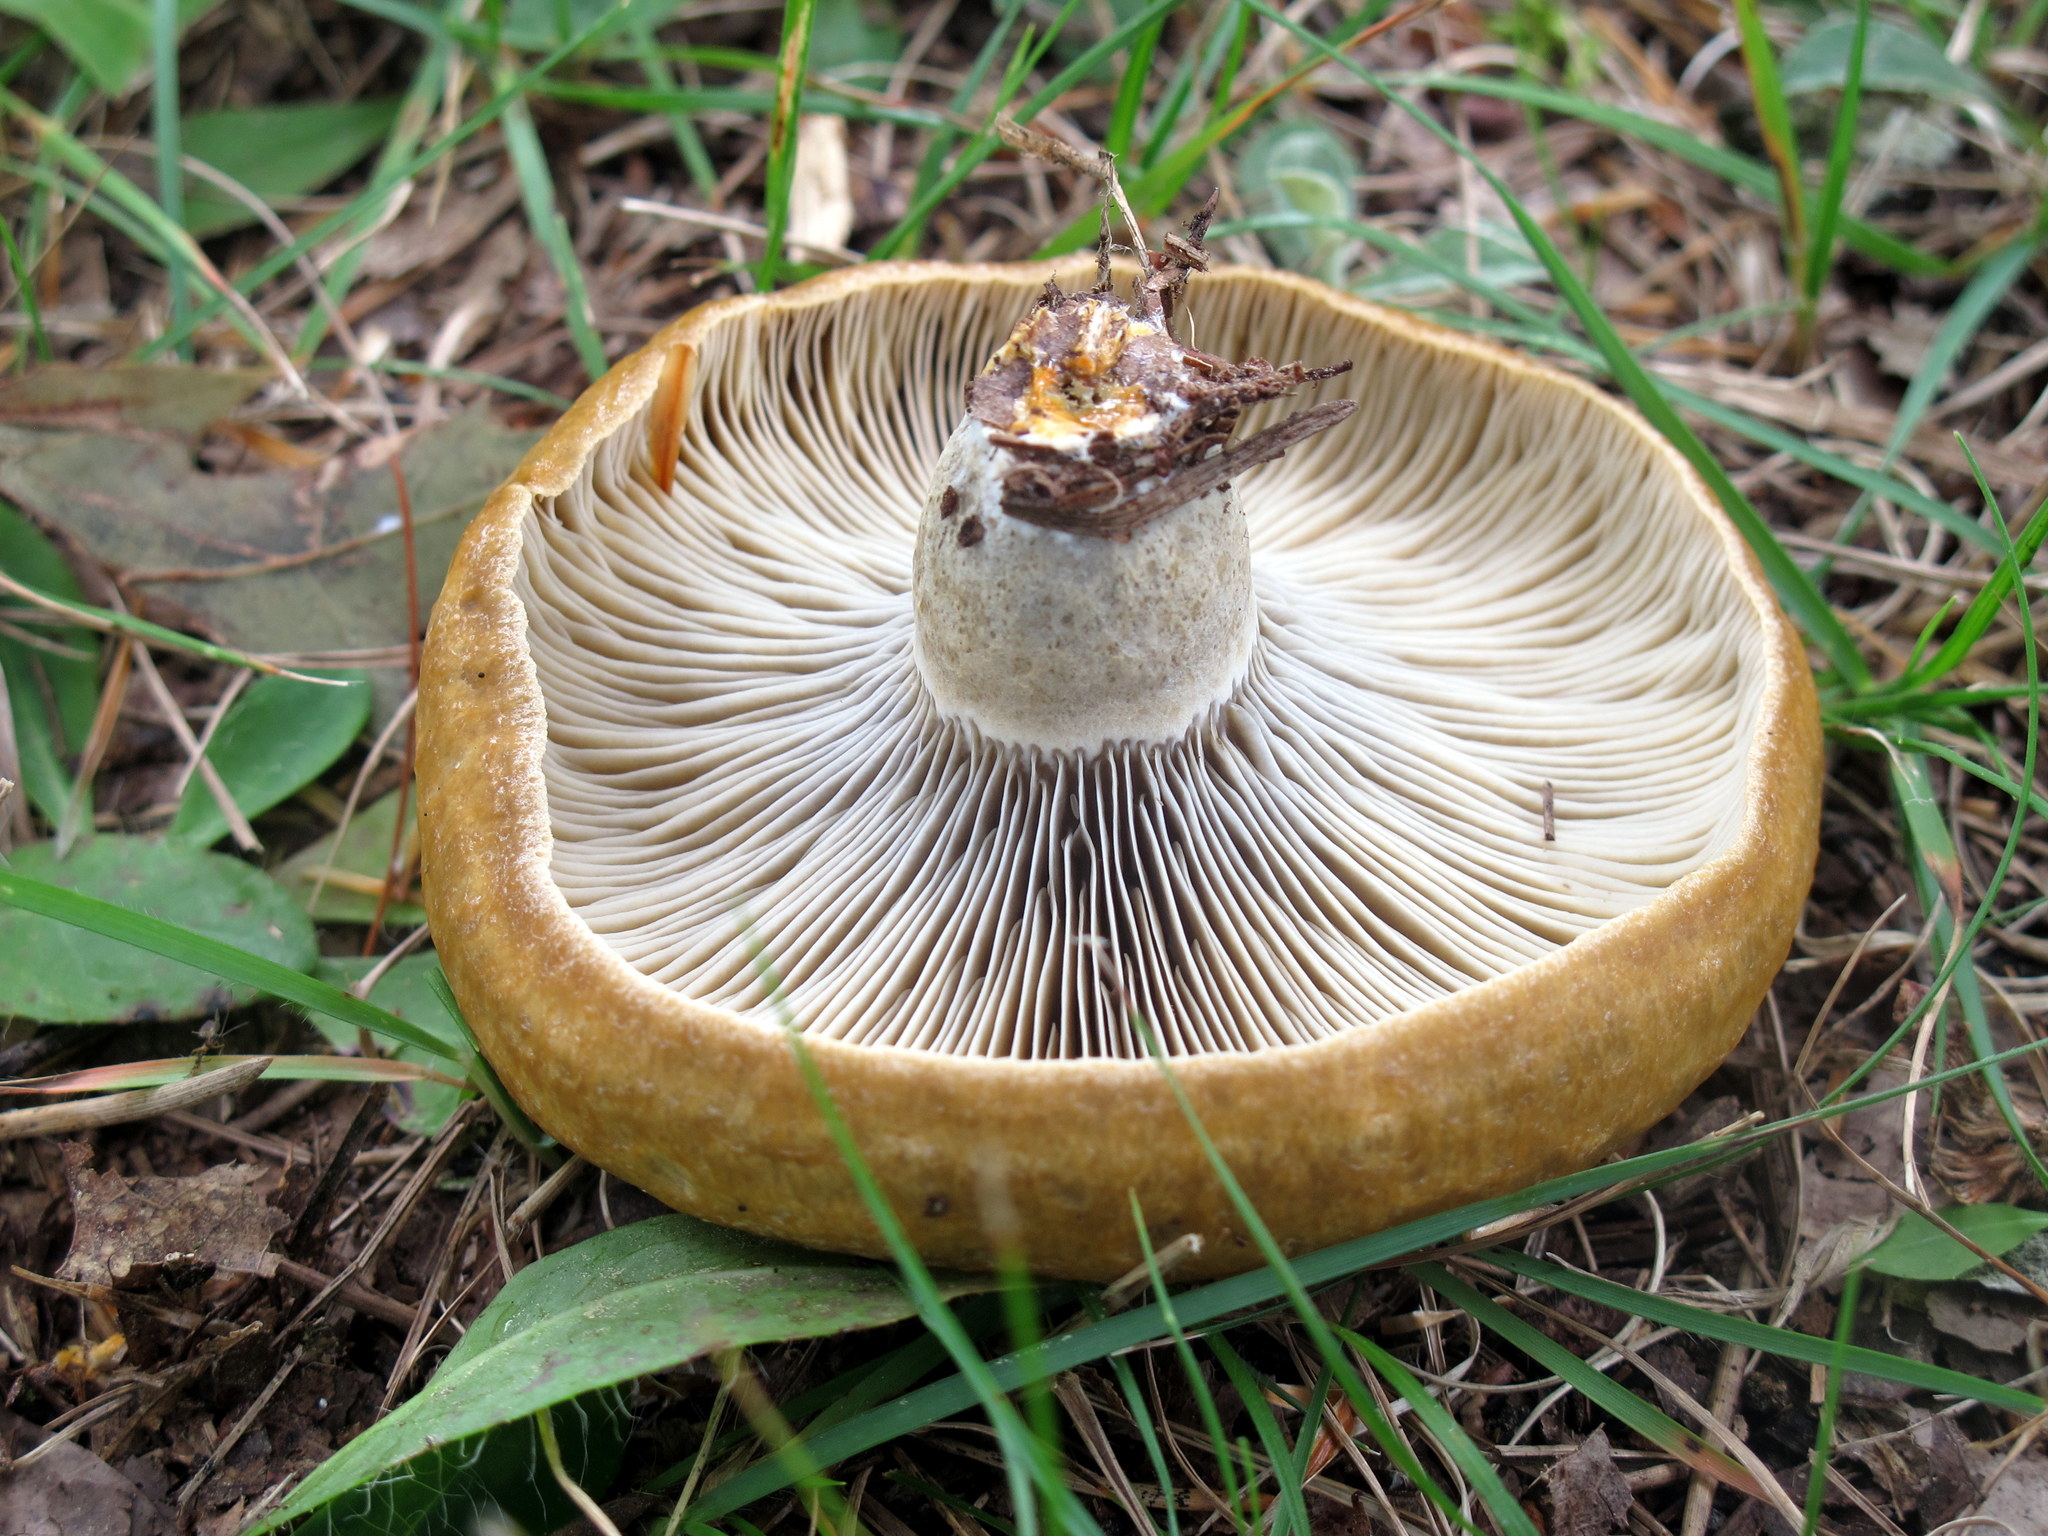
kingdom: Fungi
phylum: Basidiomycota
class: Agaricomycetes
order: Russulales
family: Russulaceae
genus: Lactarius
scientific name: Lactarius chelidonium
